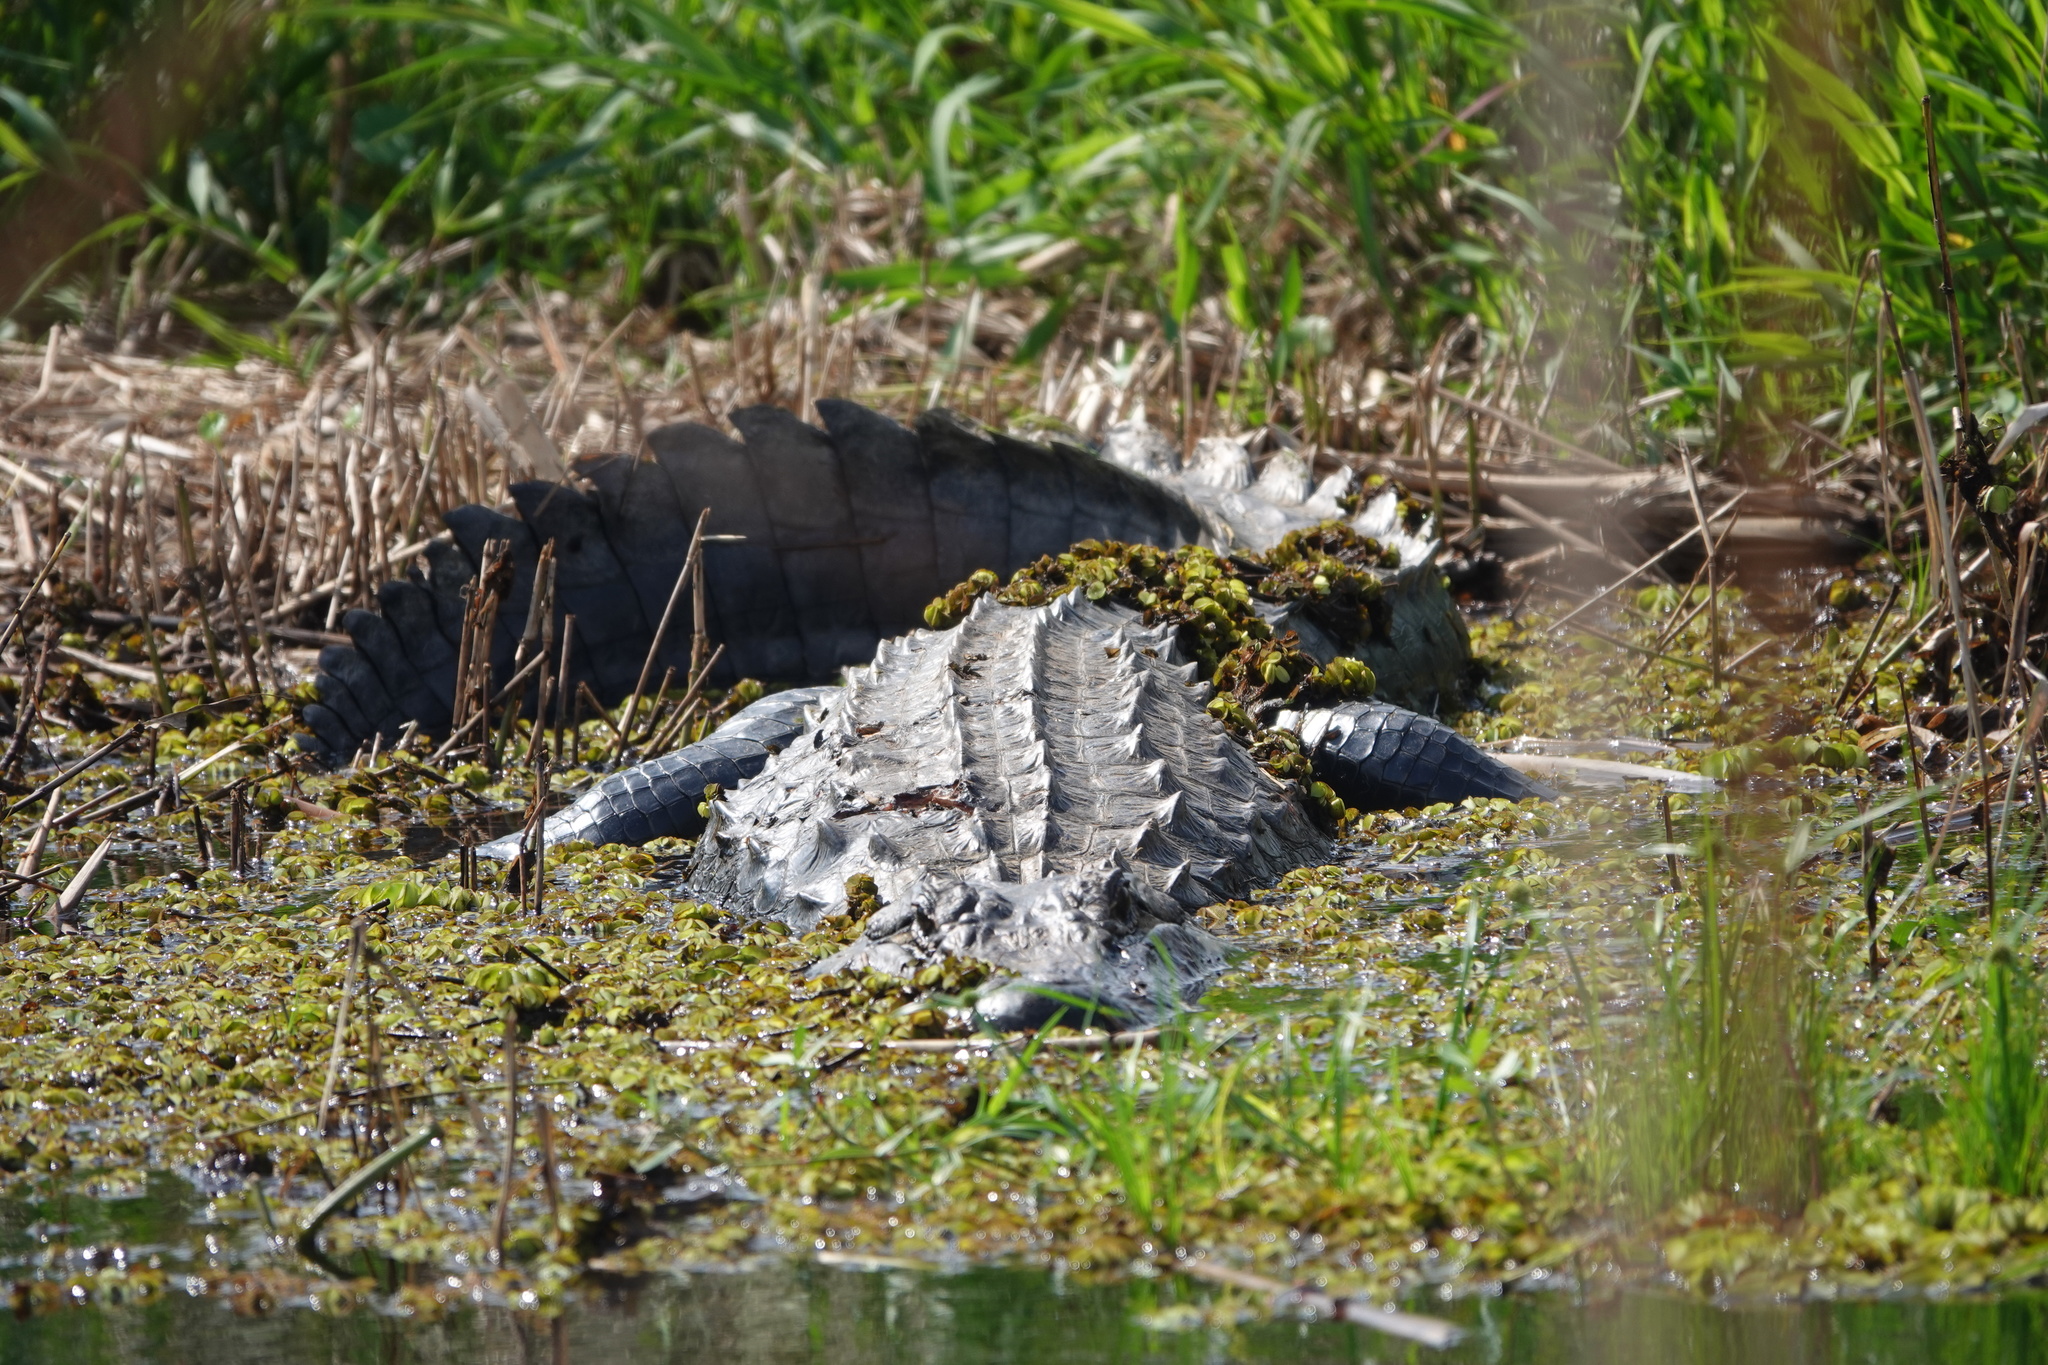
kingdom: Animalia
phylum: Chordata
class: Crocodylia
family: Alligatoridae
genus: Alligator
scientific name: Alligator mississippiensis
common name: American alligator
